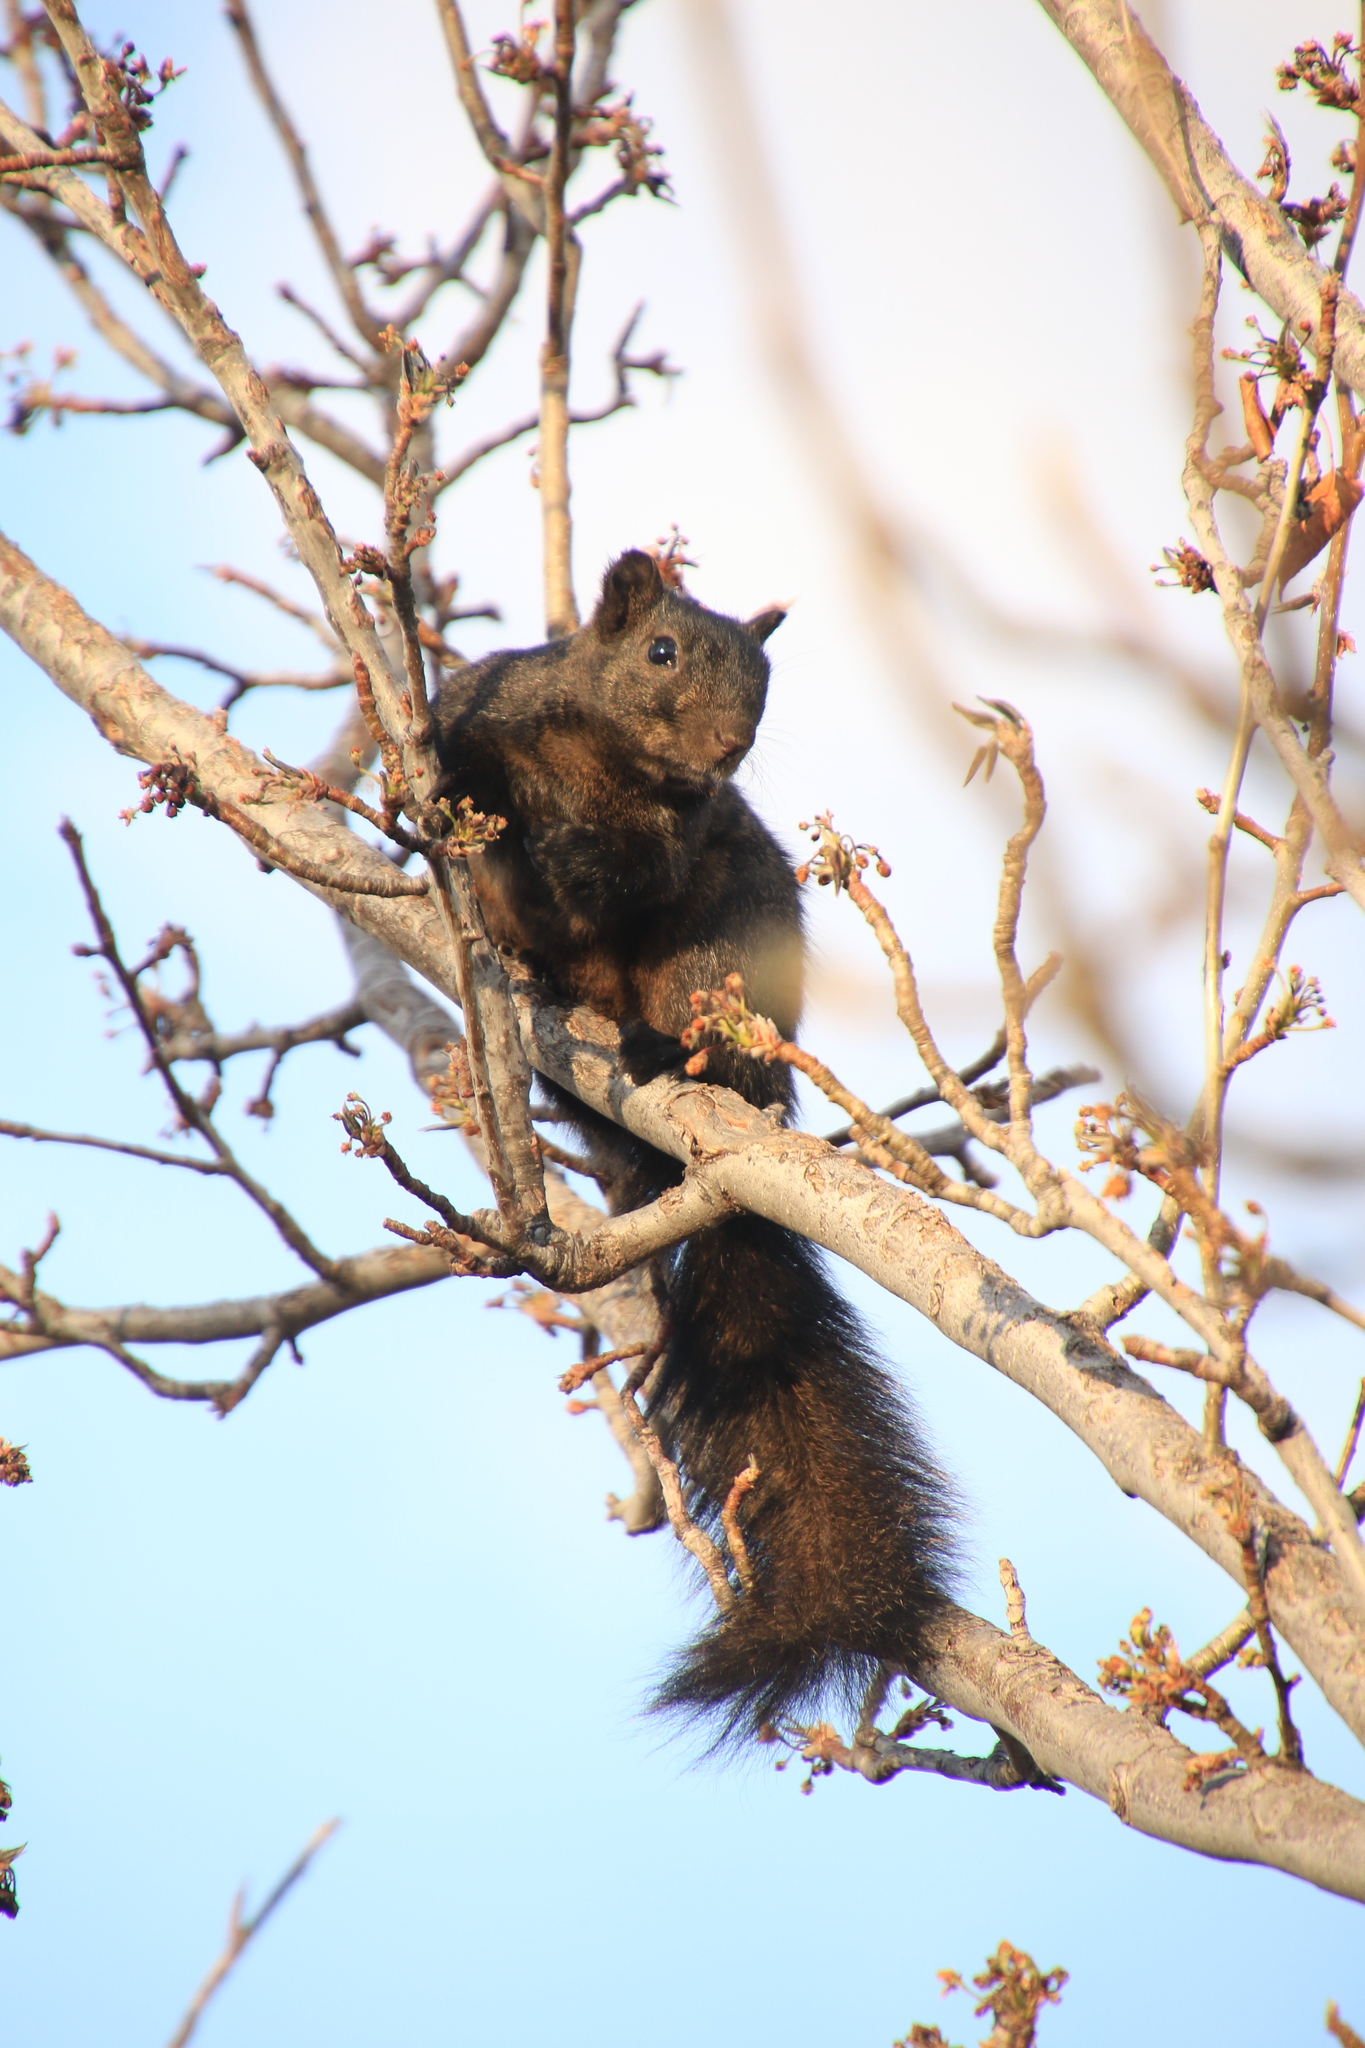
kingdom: Animalia
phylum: Chordata
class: Mammalia
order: Rodentia
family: Sciuridae
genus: Sciurus
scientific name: Sciurus niger
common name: Fox squirrel
